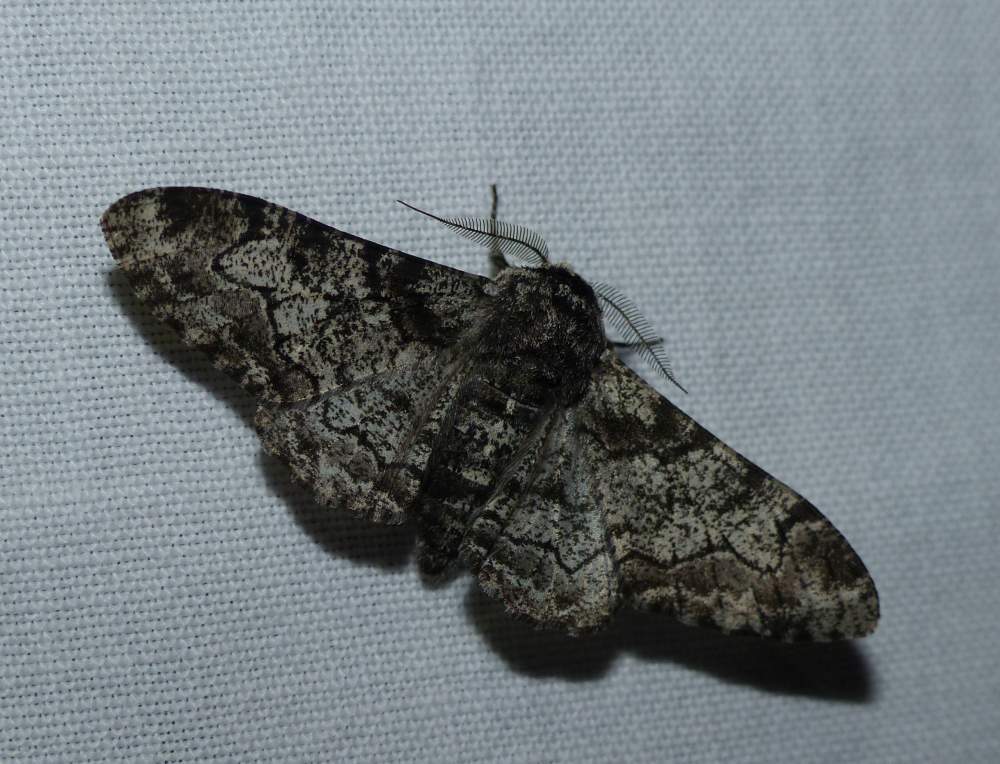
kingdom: Animalia
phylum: Arthropoda
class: Insecta
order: Lepidoptera
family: Geometridae
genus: Biston
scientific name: Biston betularia
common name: Peppered moth
